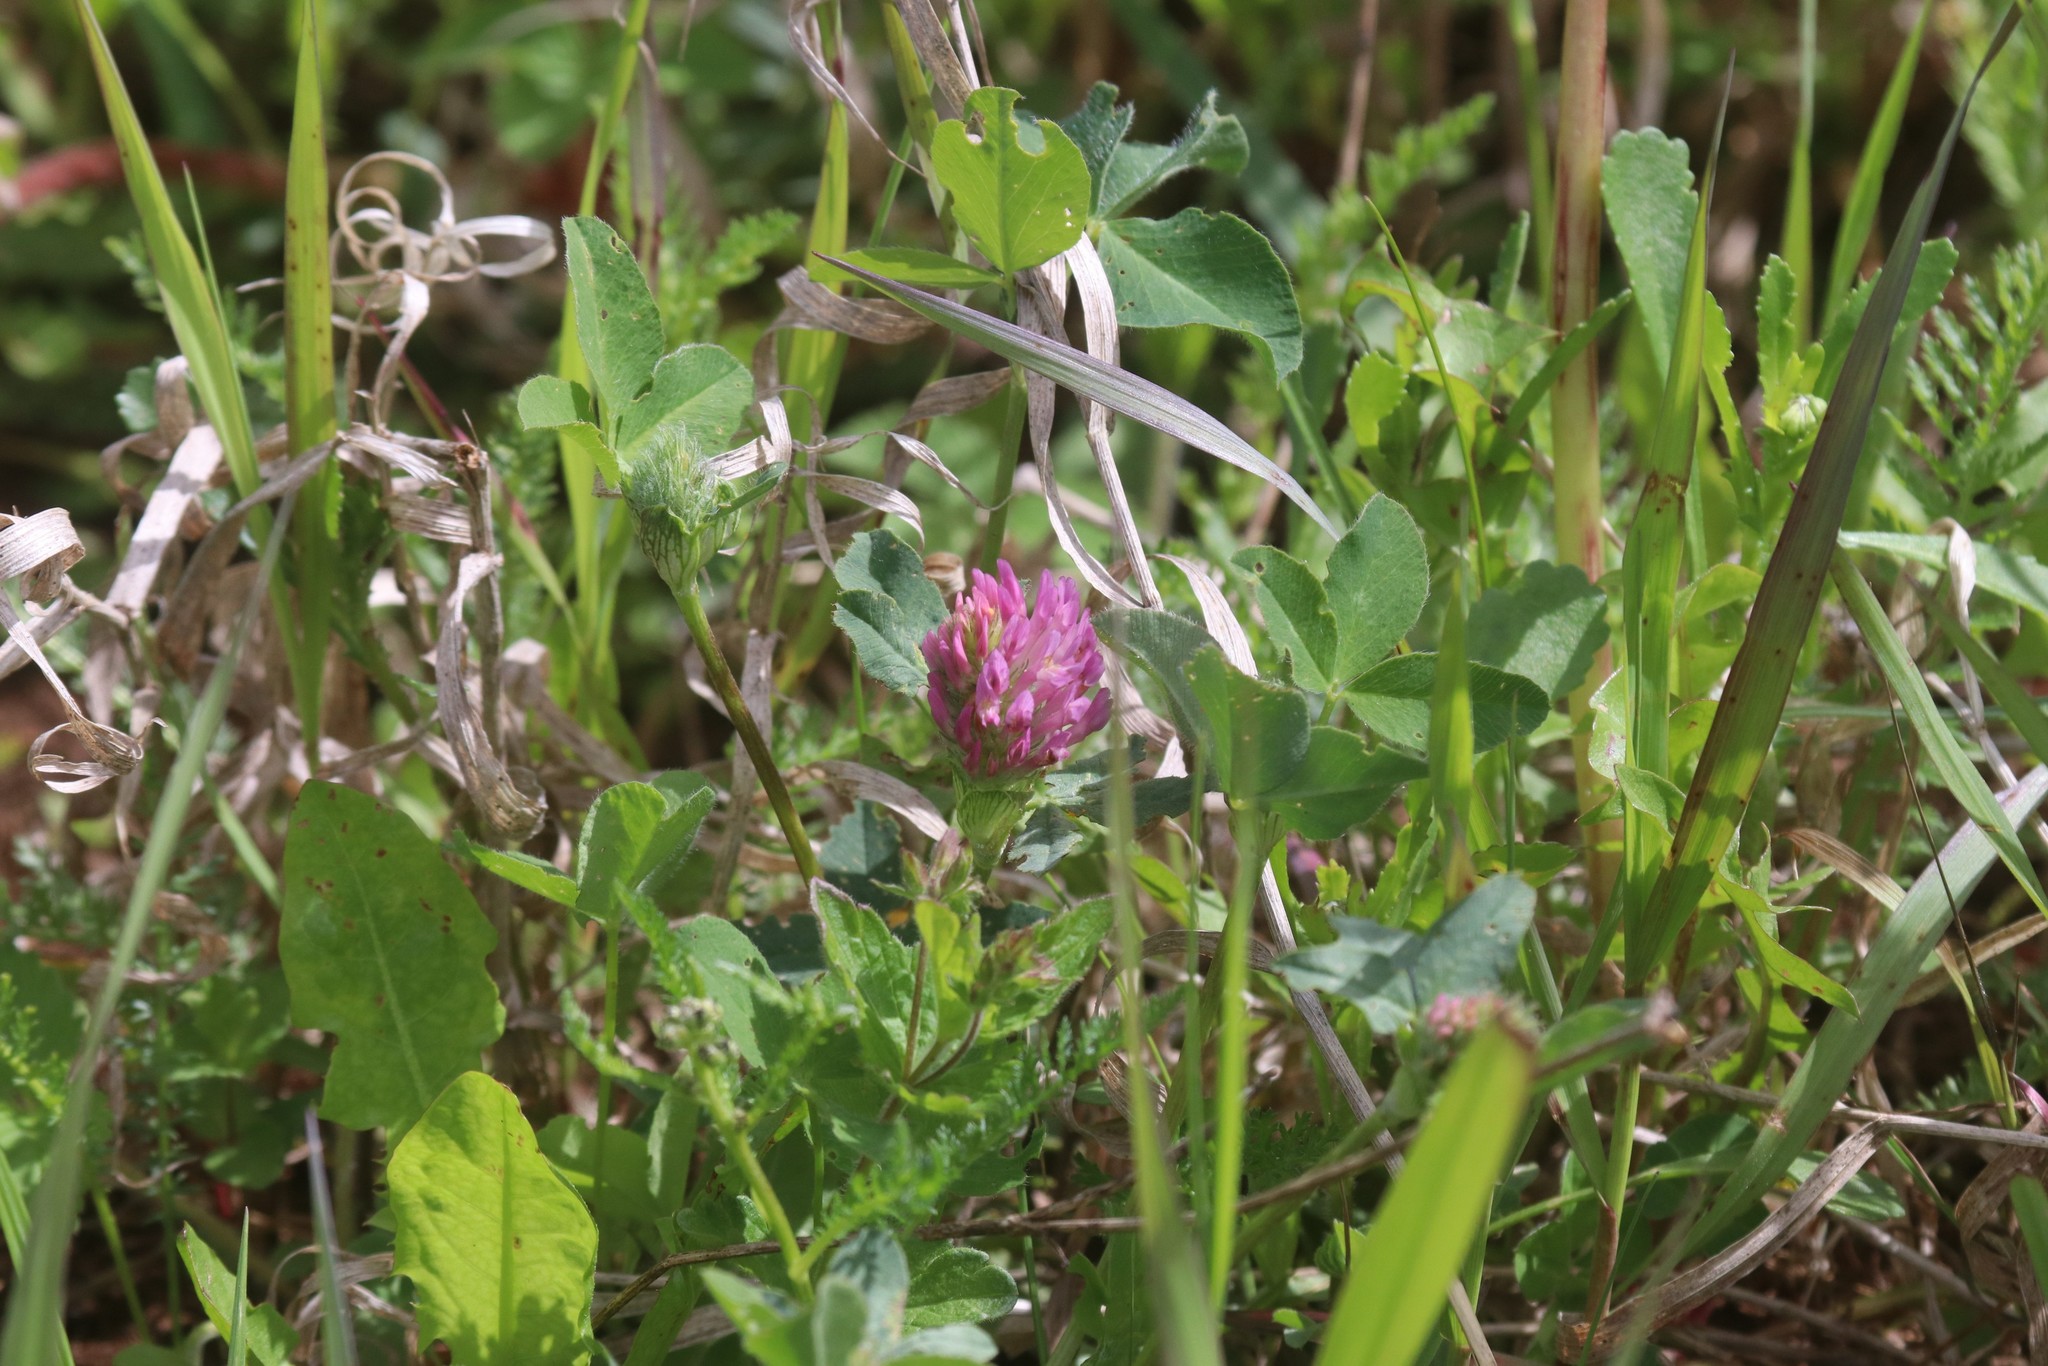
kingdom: Plantae
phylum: Tracheophyta
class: Magnoliopsida
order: Fabales
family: Fabaceae
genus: Trifolium
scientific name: Trifolium pratense
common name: Red clover
